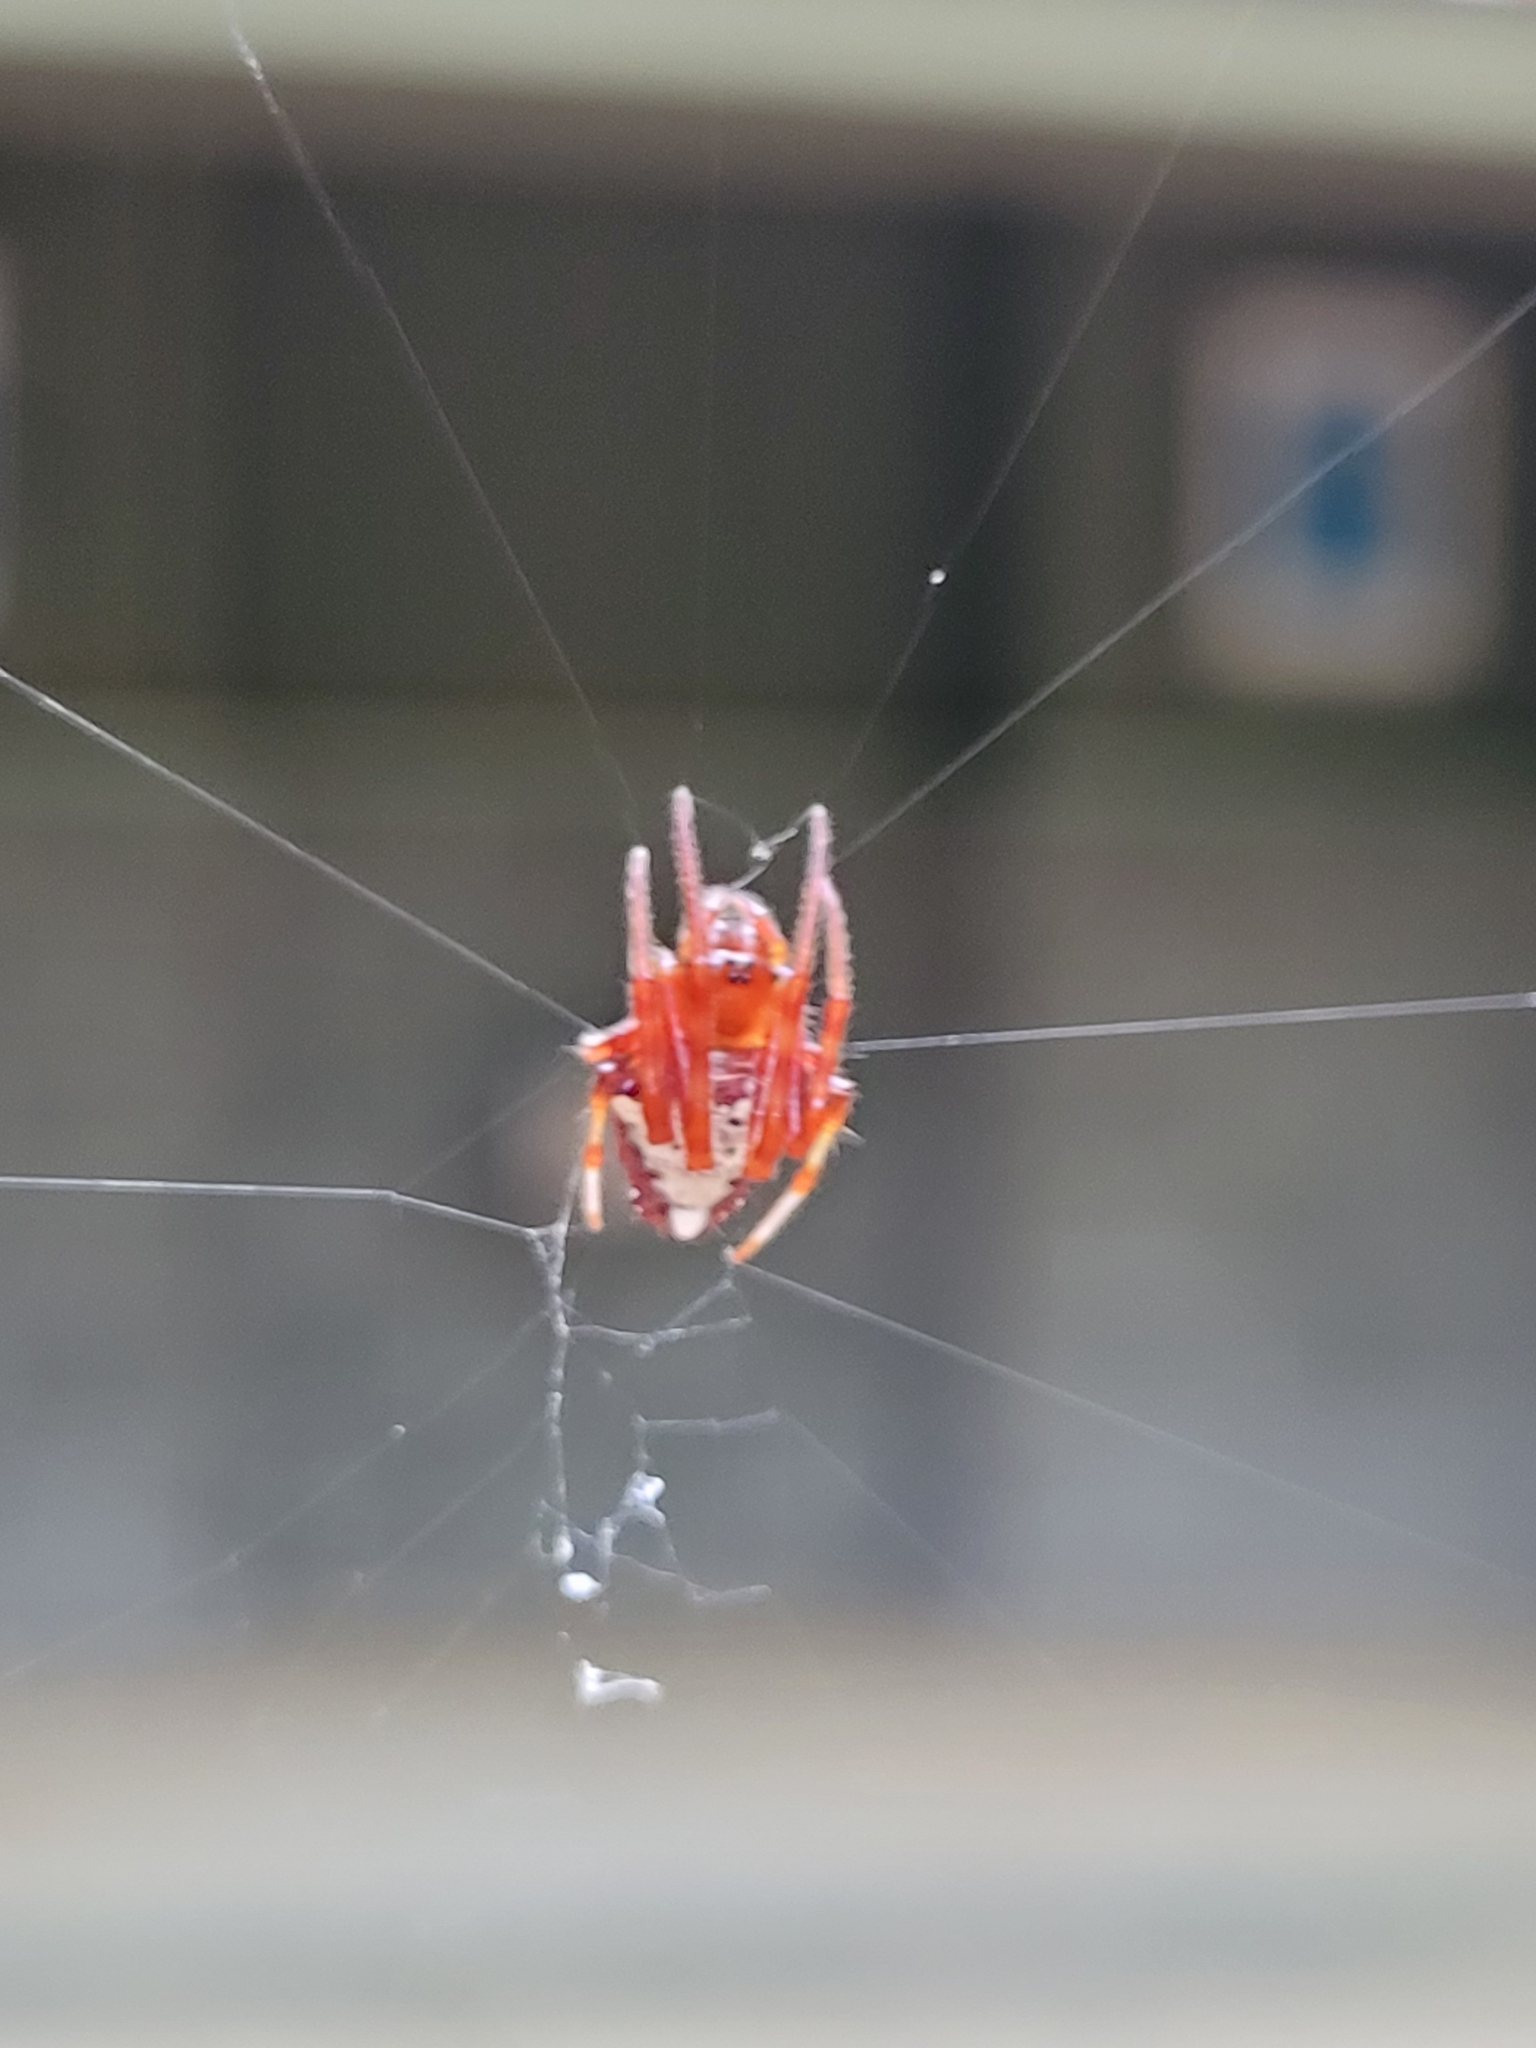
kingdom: Animalia
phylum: Arthropoda
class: Arachnida
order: Araneae
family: Araneidae
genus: Verrucosa
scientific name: Verrucosa arenata
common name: Orb weavers
